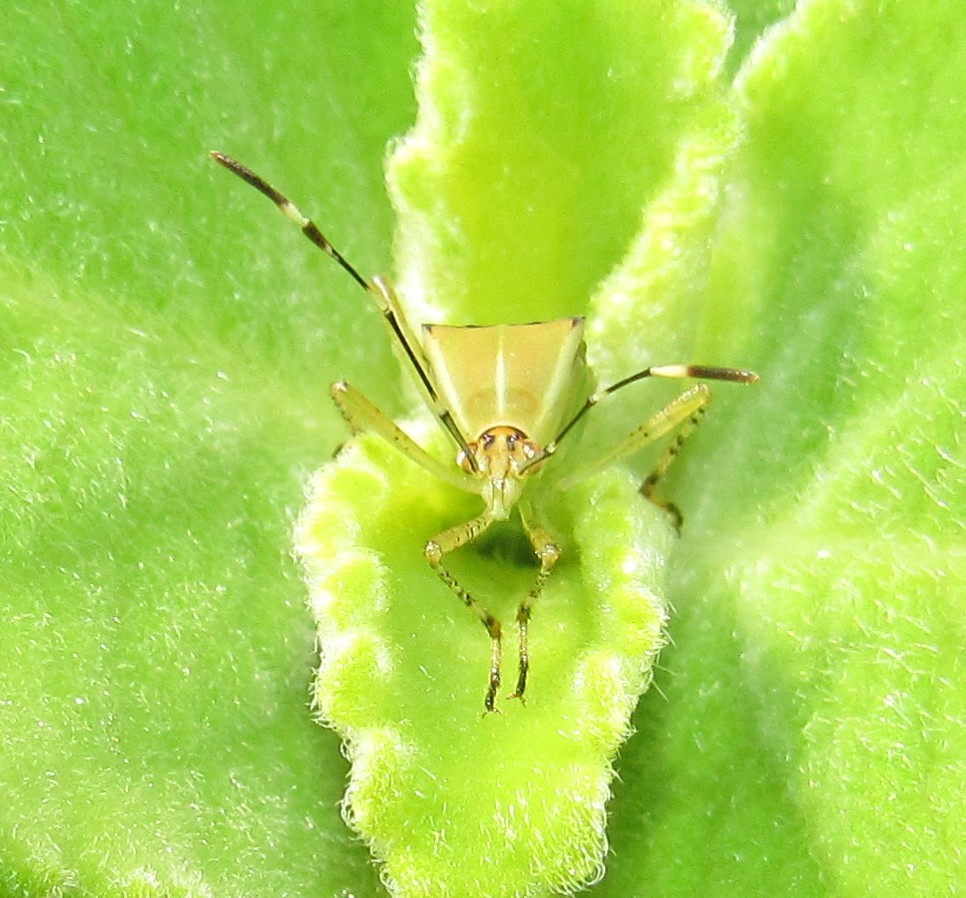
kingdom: Animalia
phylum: Arthropoda
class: Insecta
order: Hemiptera
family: Coreidae
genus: Hypselonotus
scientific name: Hypselonotus fulvus
